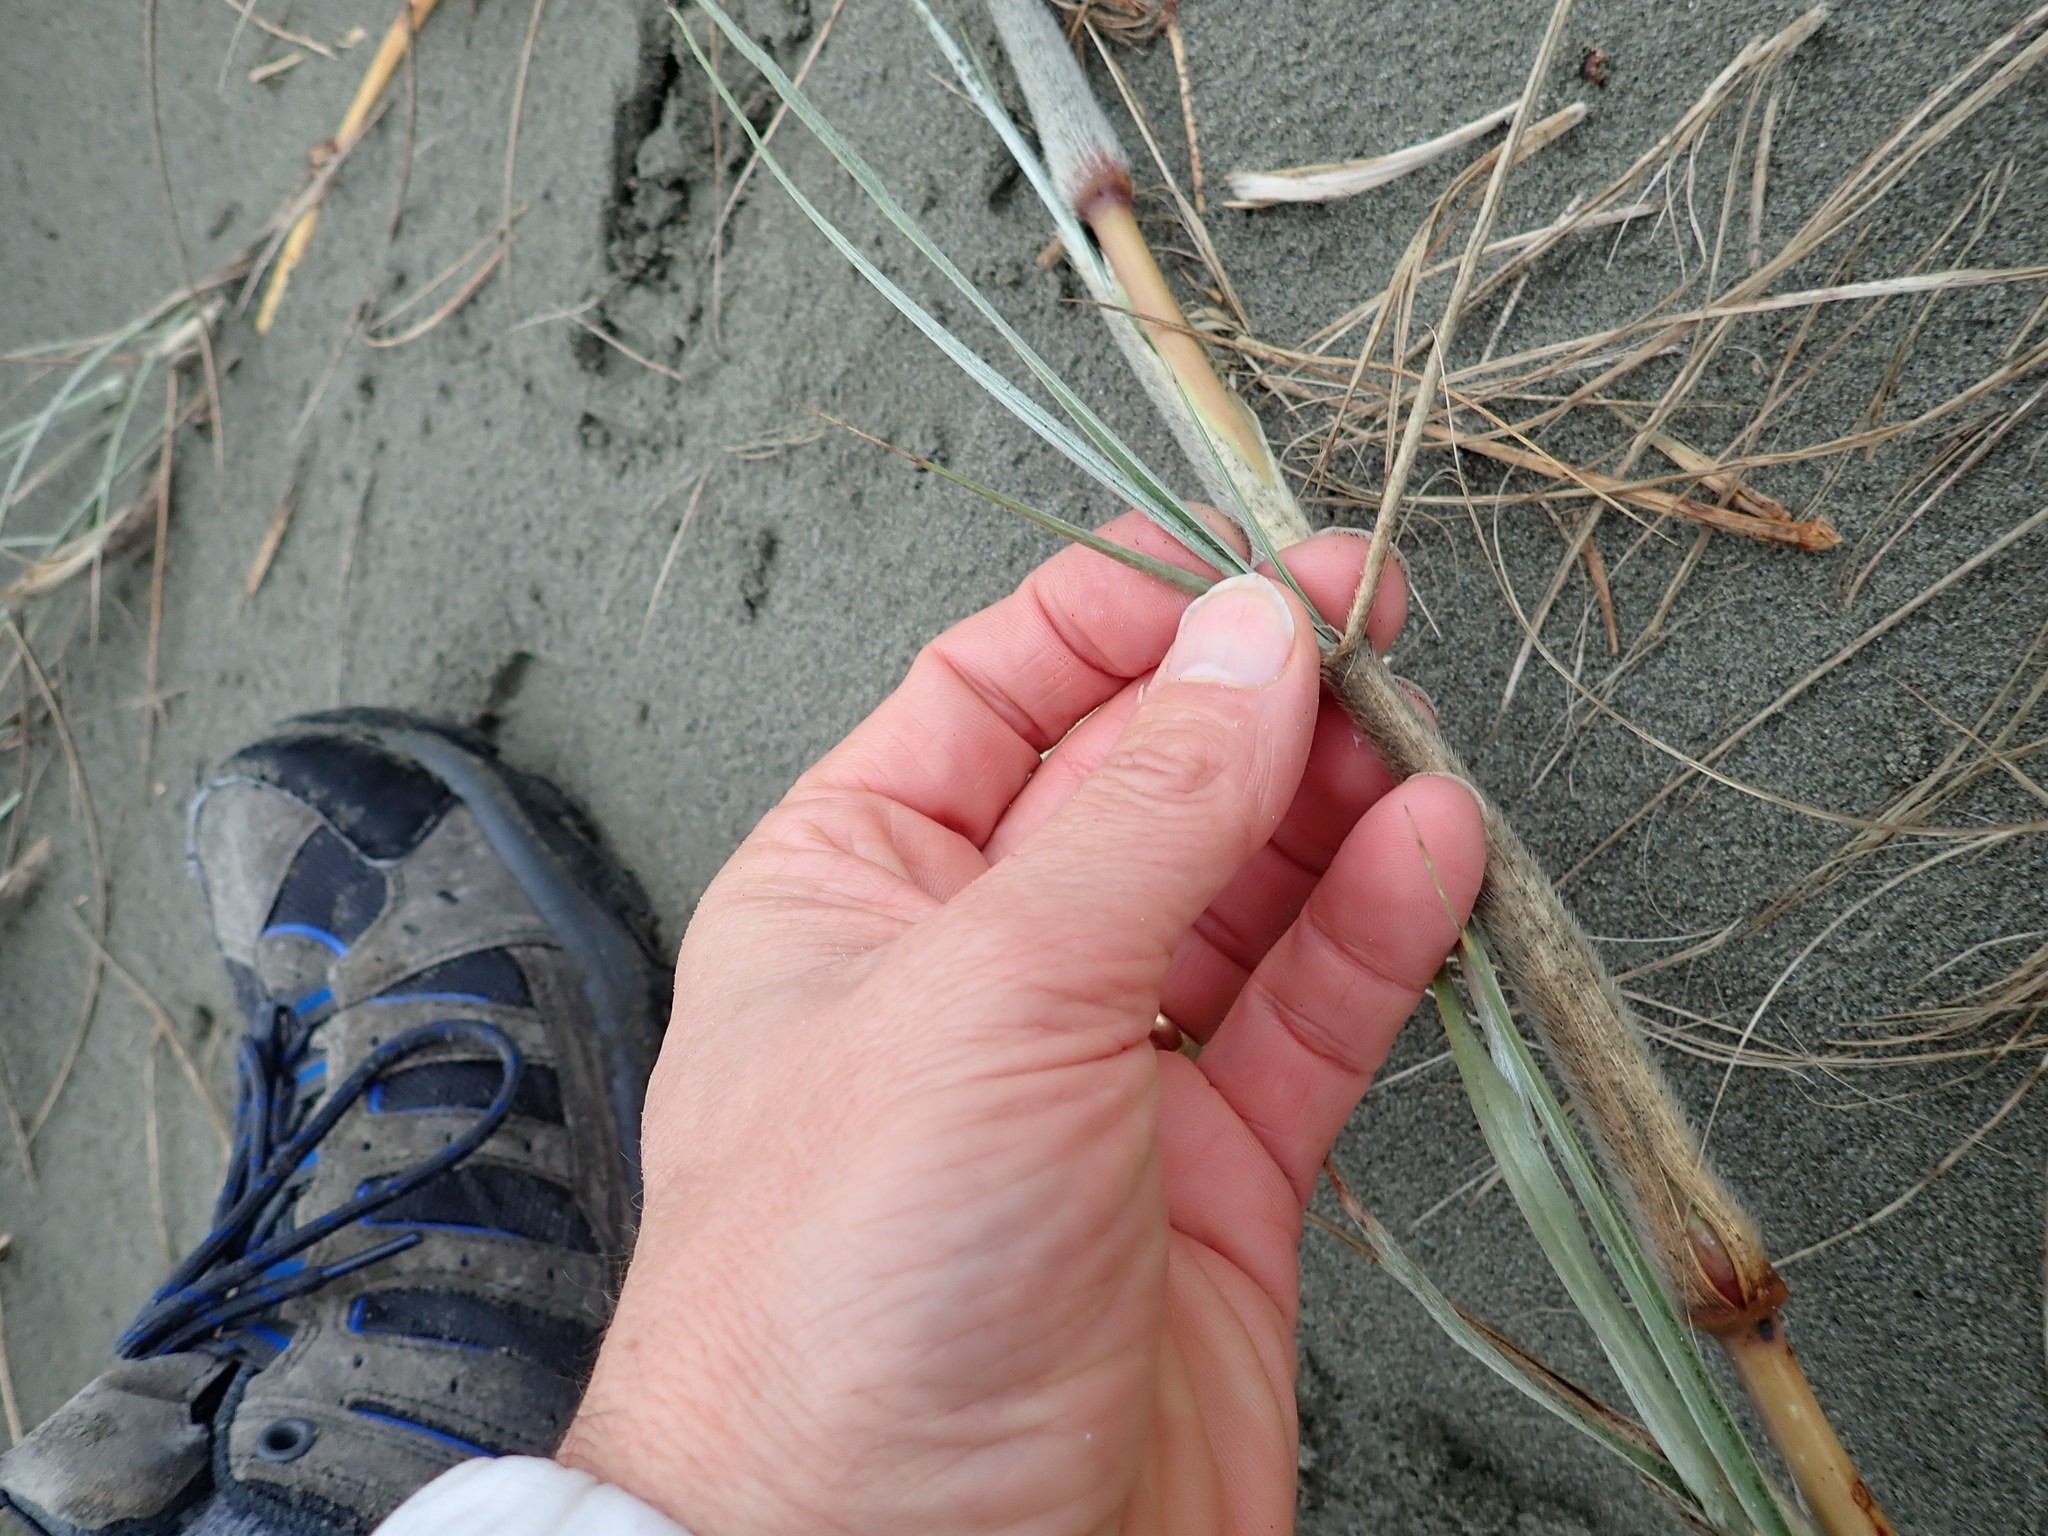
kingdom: Plantae
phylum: Tracheophyta
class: Liliopsida
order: Poales
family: Poaceae
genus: Spinifex
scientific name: Spinifex sericeus
